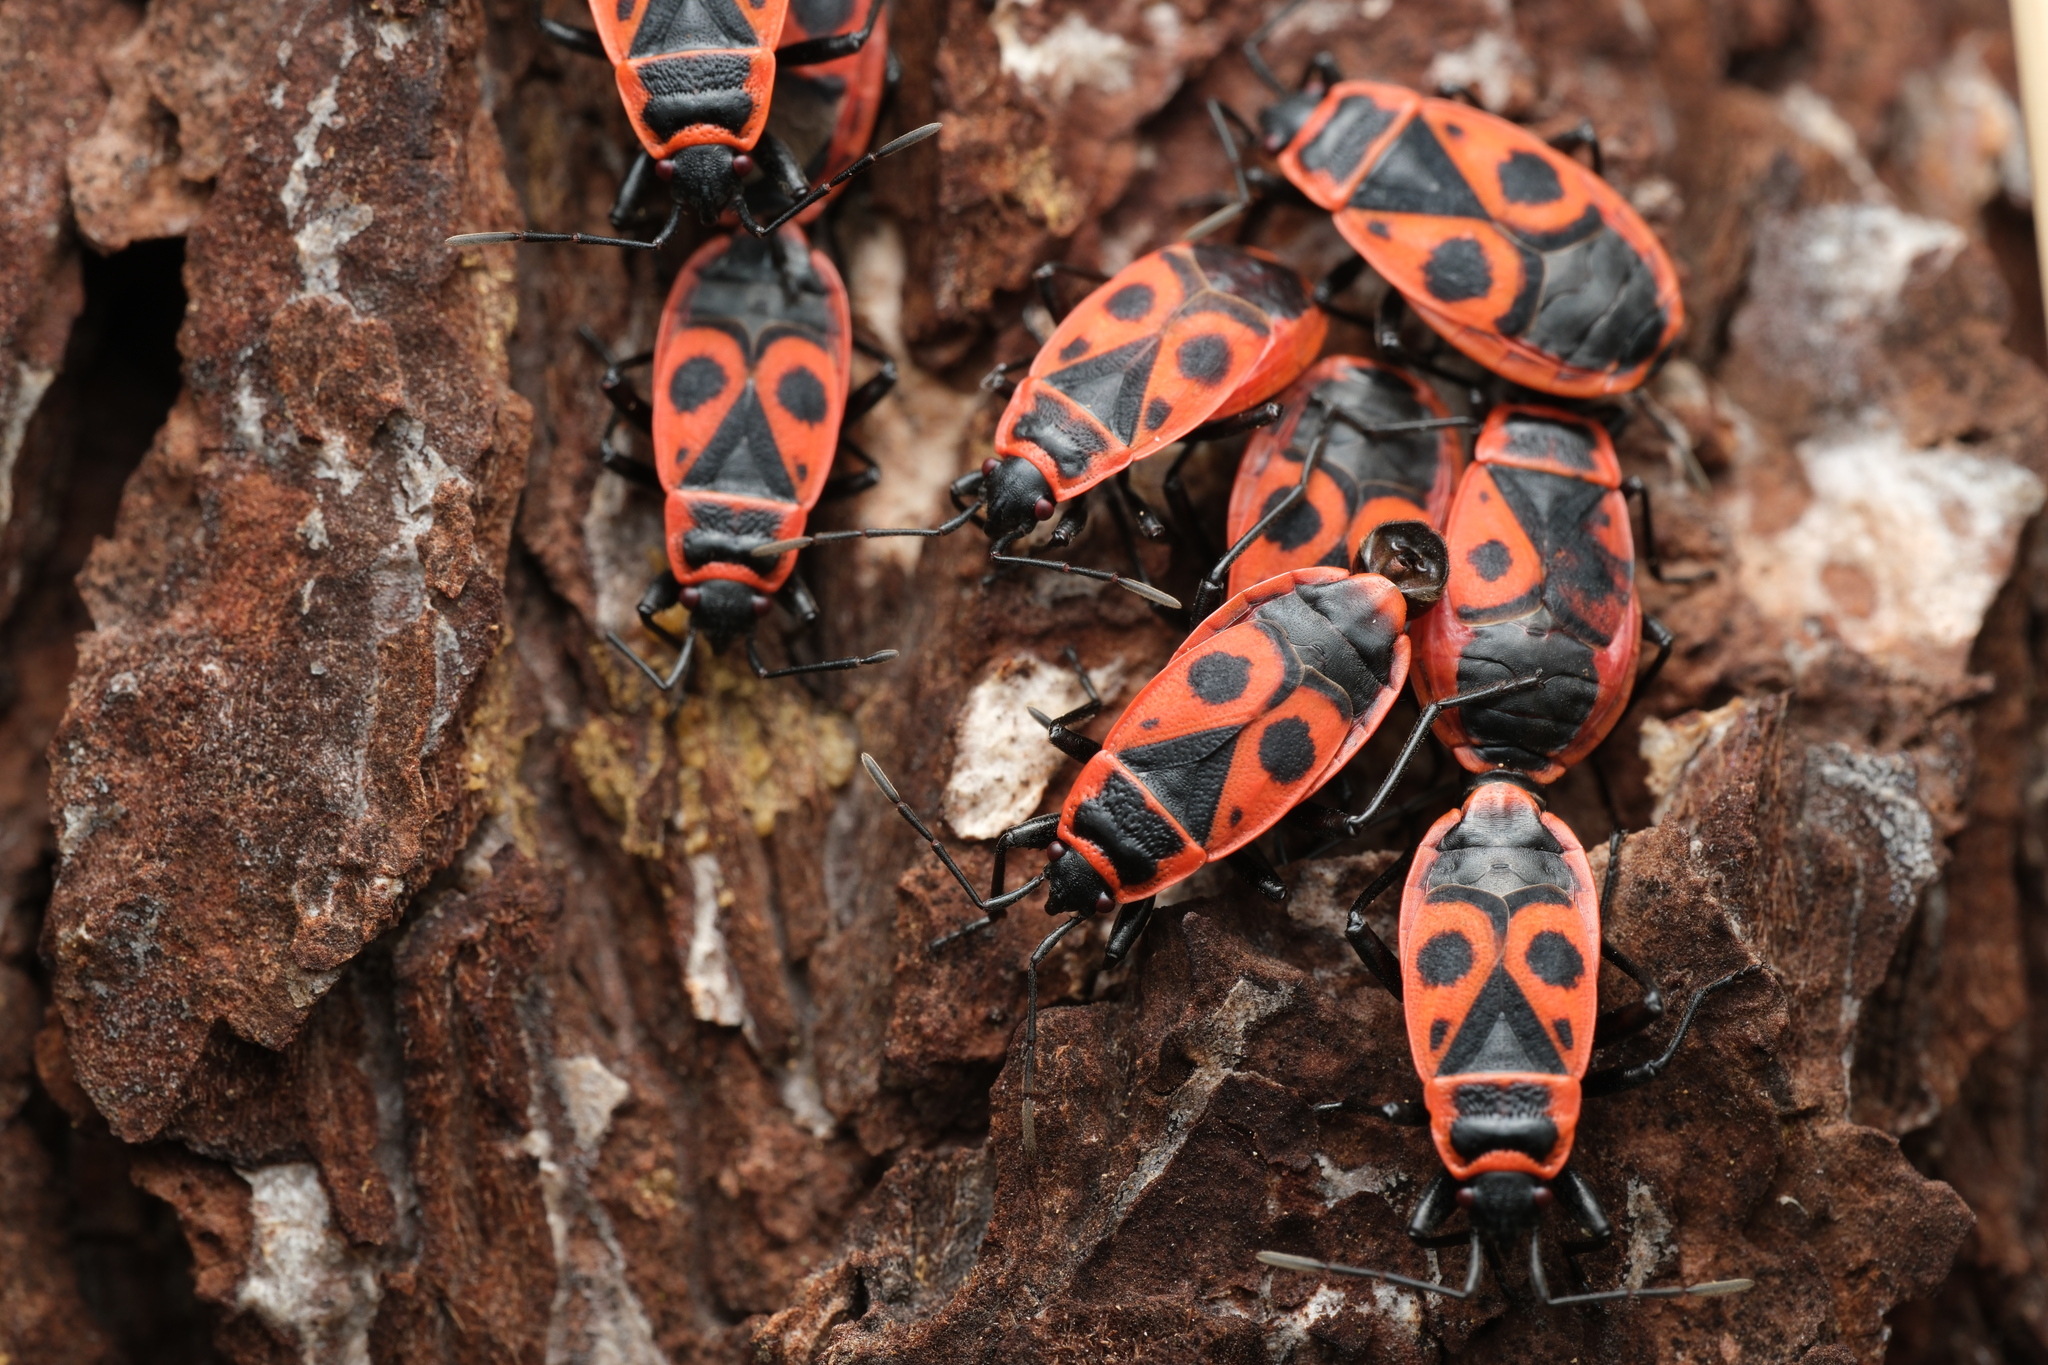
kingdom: Animalia
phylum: Arthropoda
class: Insecta
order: Hemiptera
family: Pyrrhocoridae
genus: Pyrrhocoris
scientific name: Pyrrhocoris apterus
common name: Firebug
